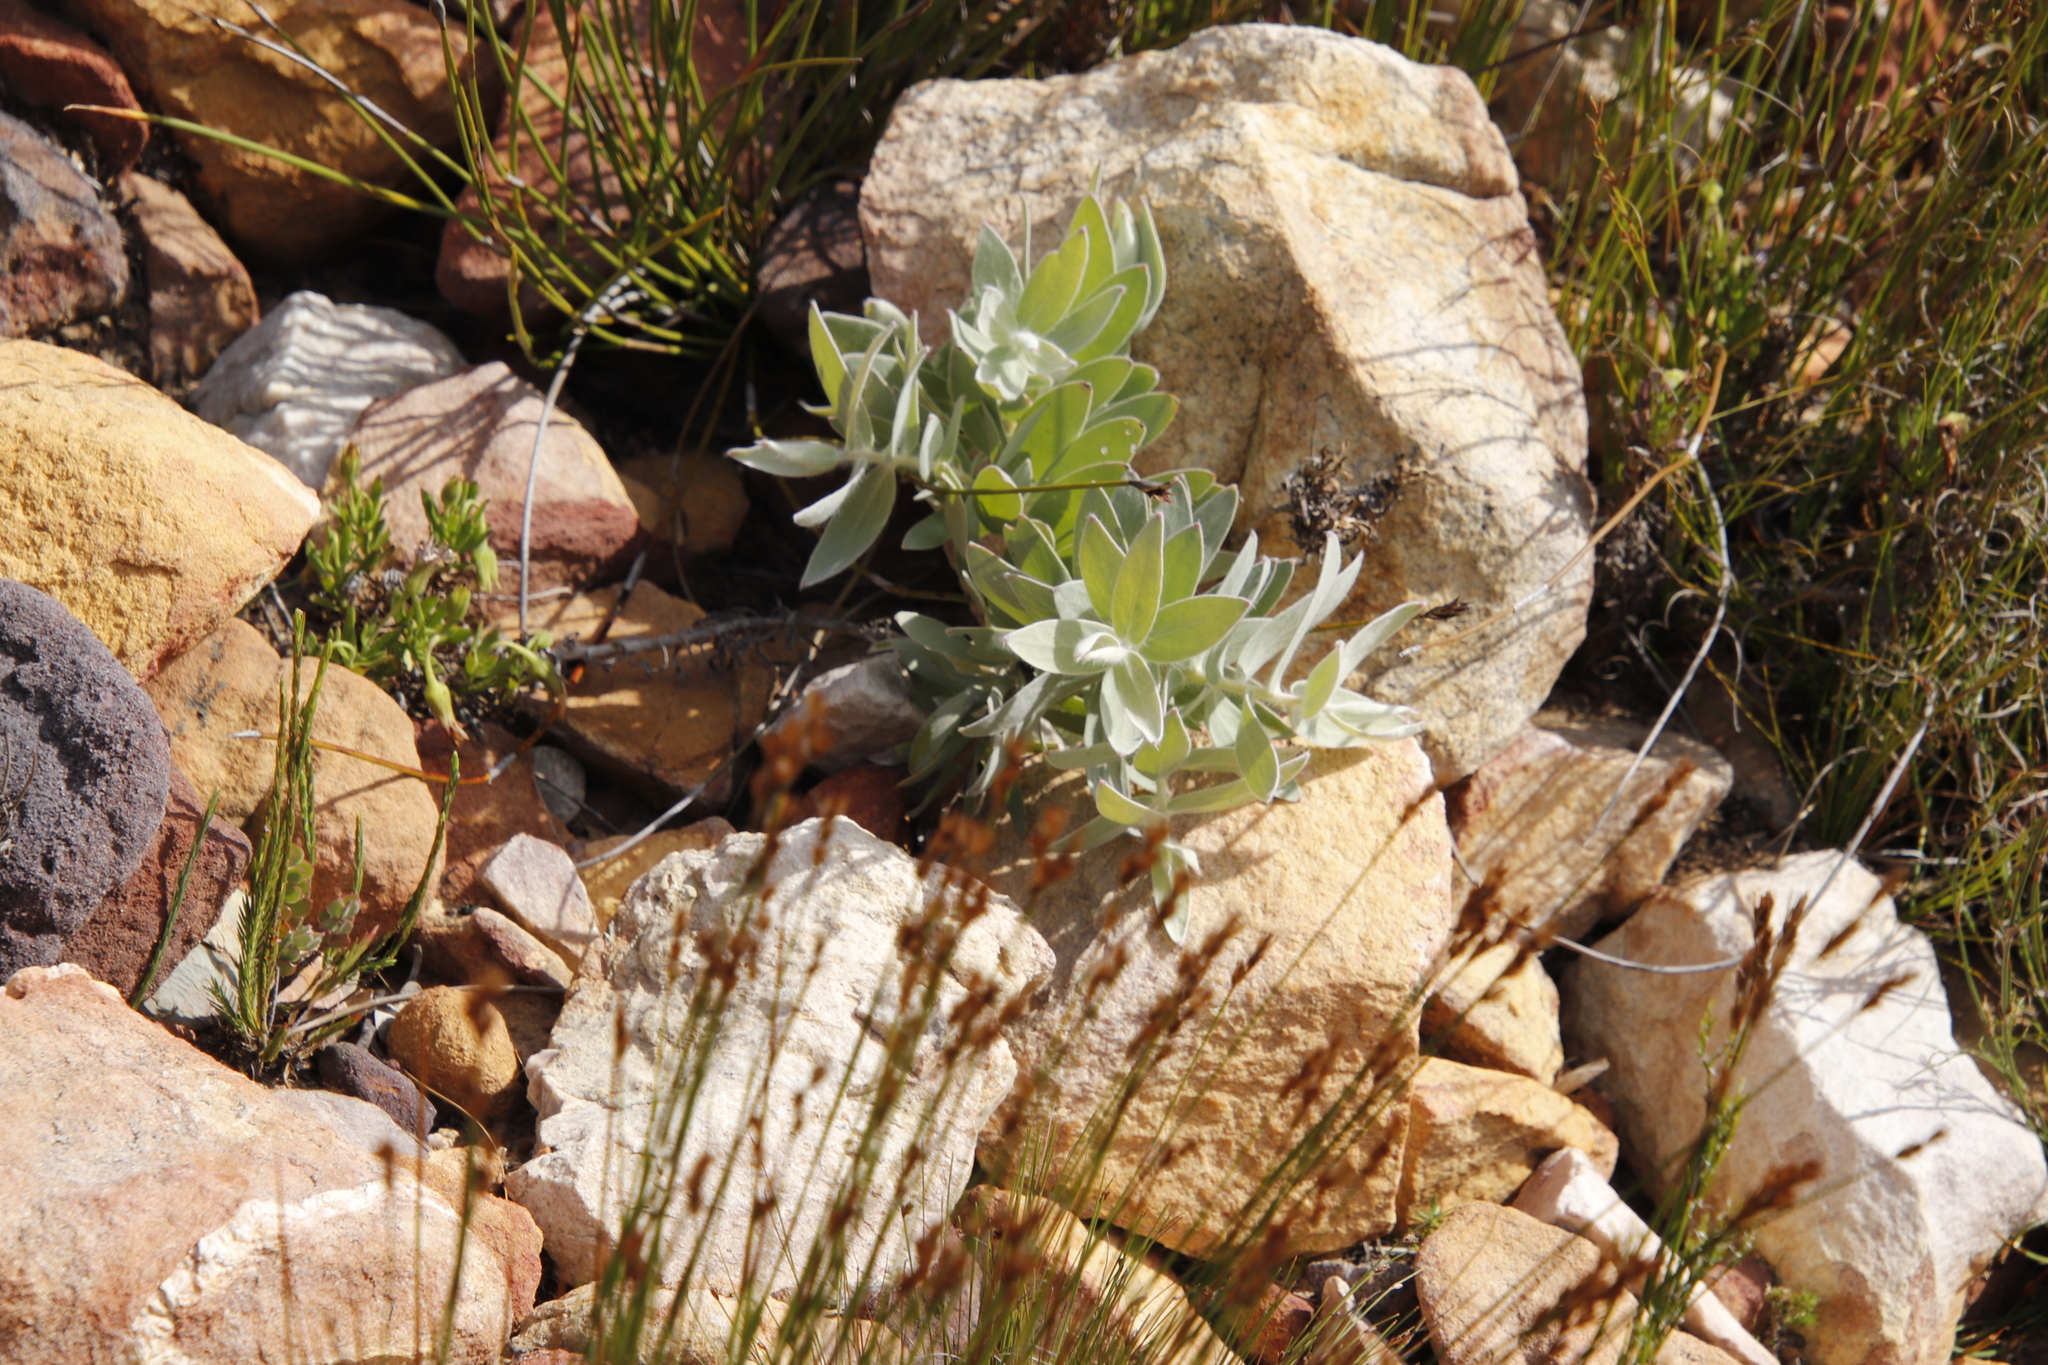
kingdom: Plantae
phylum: Tracheophyta
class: Magnoliopsida
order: Proteales
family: Proteaceae
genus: Leucospermum
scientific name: Leucospermum cordatum
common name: Heart-leaf pincushion
